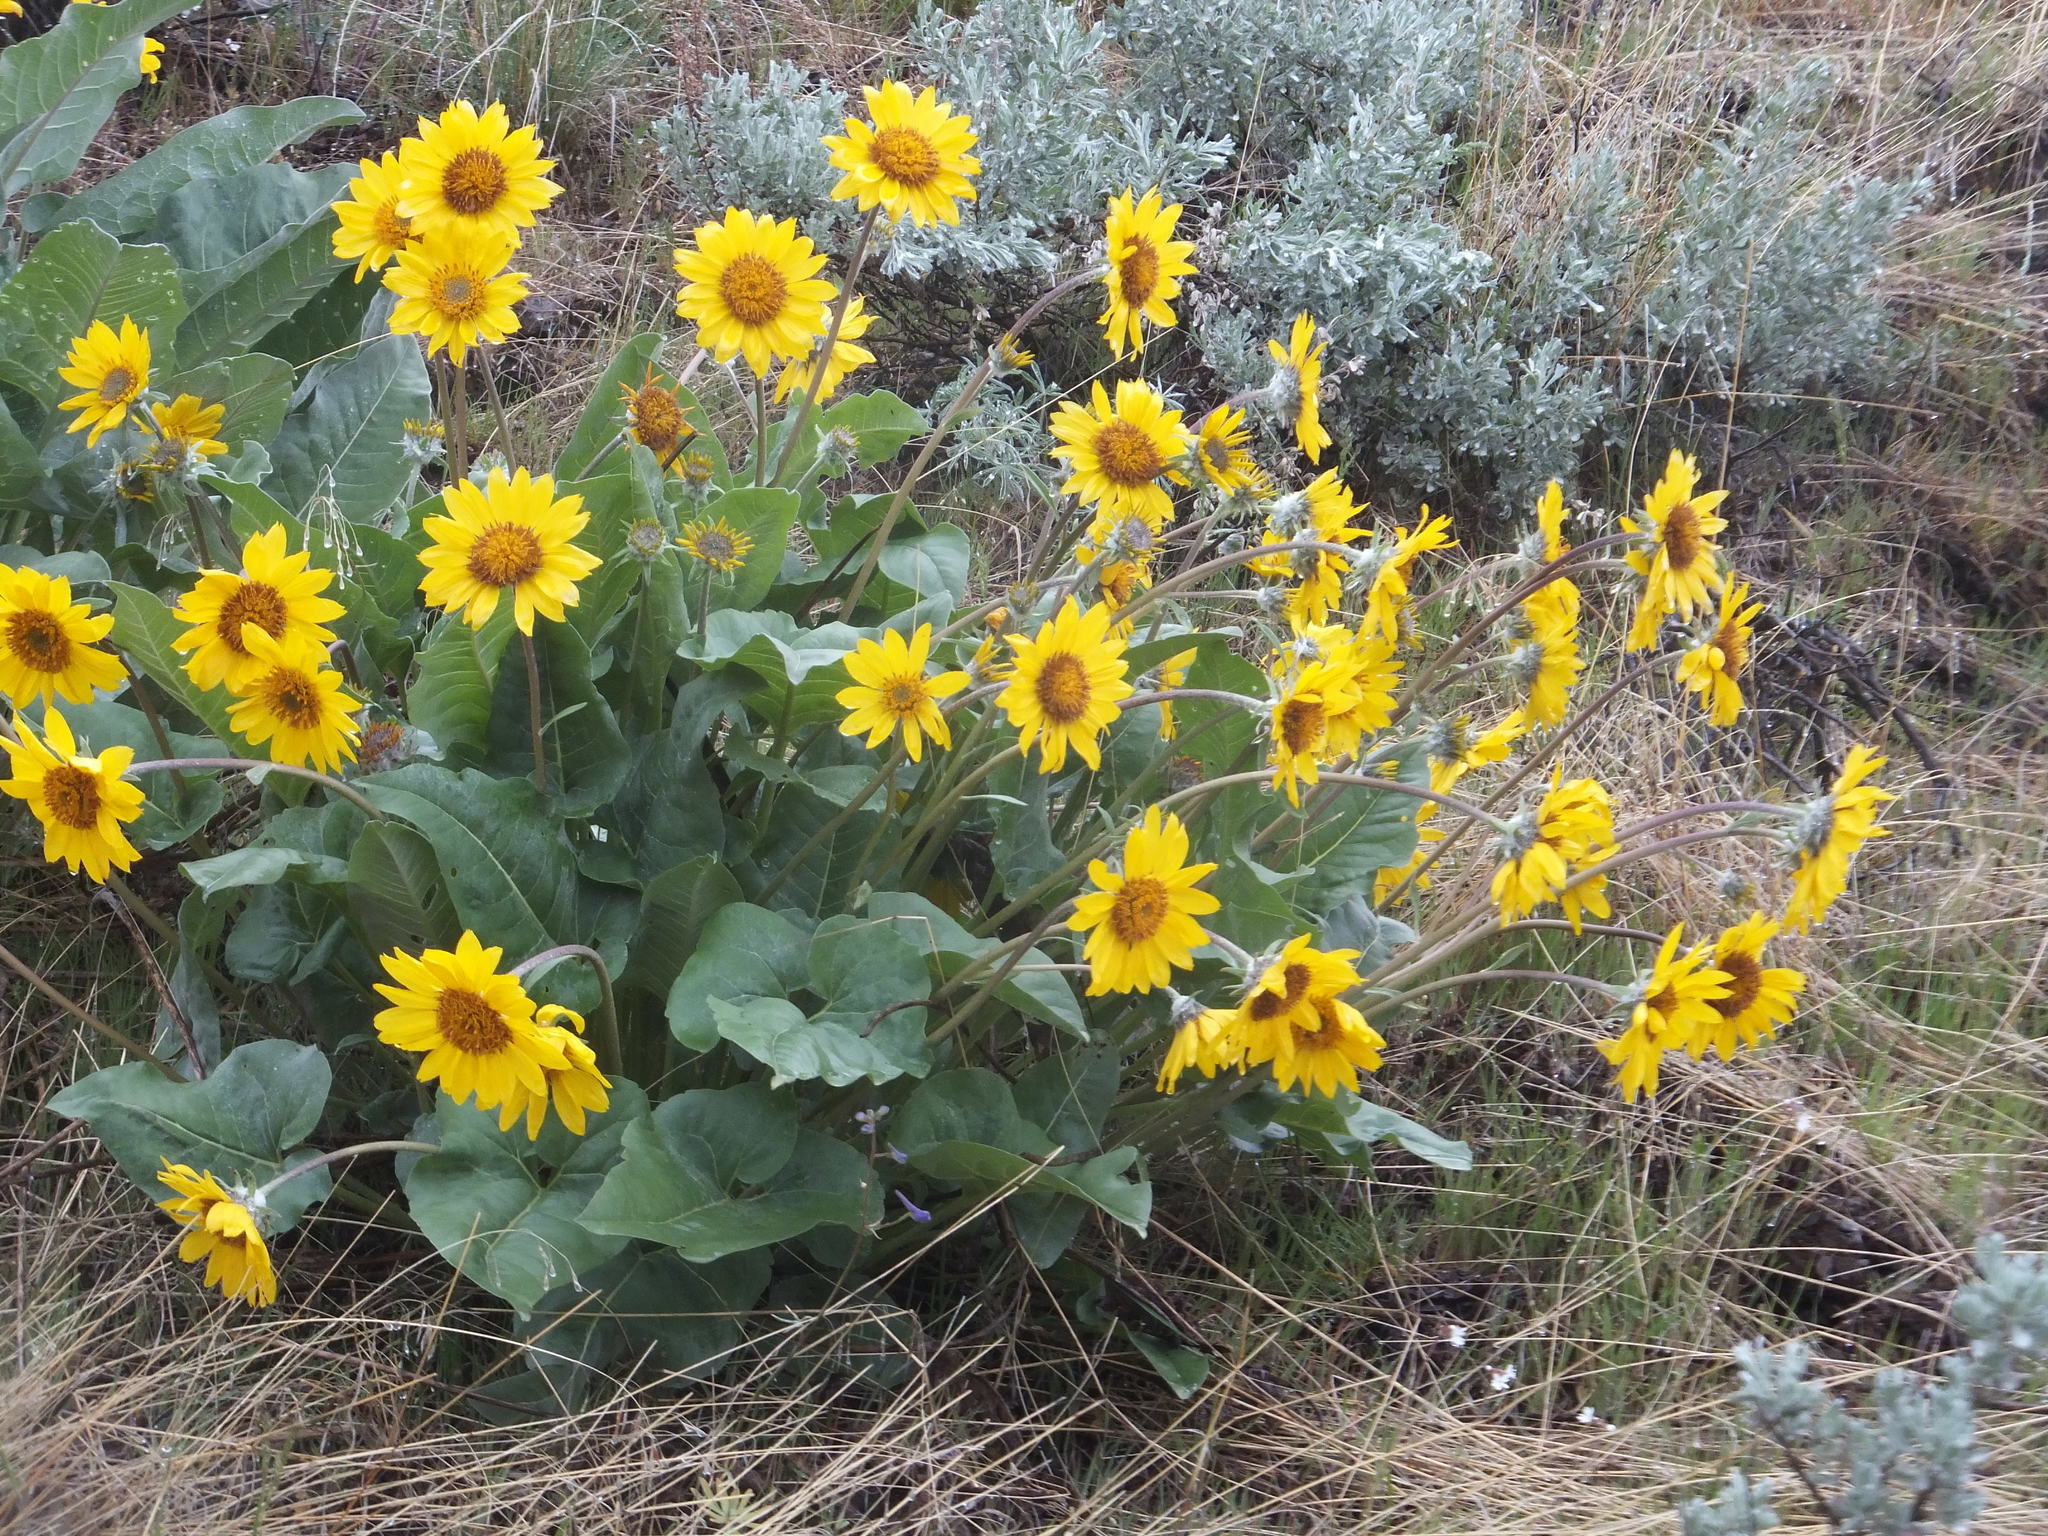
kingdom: Plantae
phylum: Tracheophyta
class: Magnoliopsida
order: Asterales
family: Asteraceae
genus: Wyethia
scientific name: Wyethia sagittata
